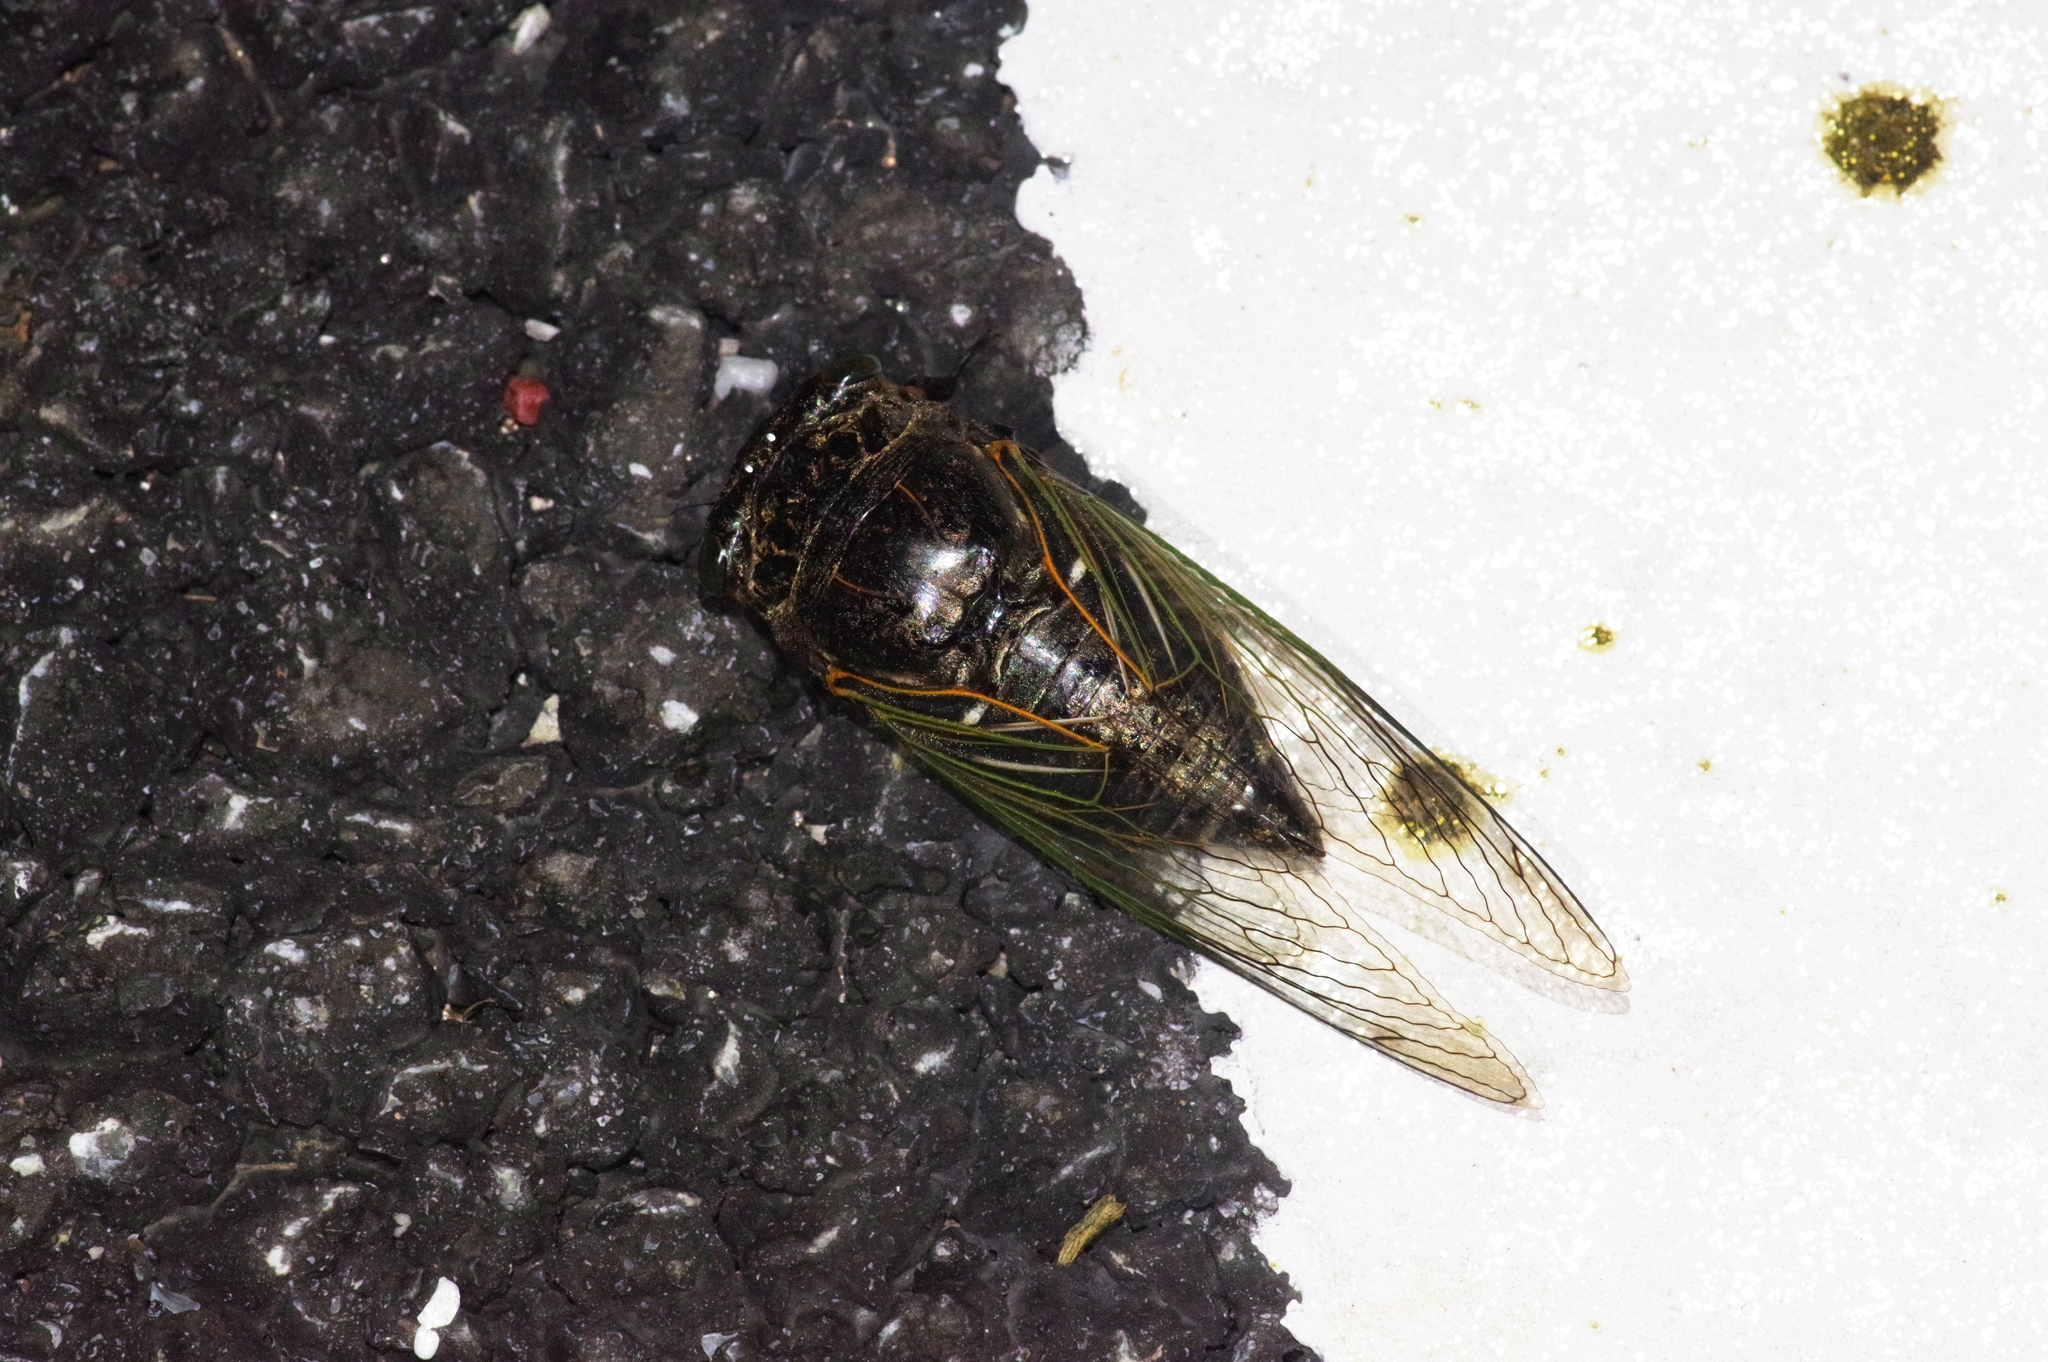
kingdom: Animalia
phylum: Arthropoda
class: Insecta
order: Hemiptera
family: Cicadidae
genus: Cryptotympana
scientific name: Cryptotympana facialis
